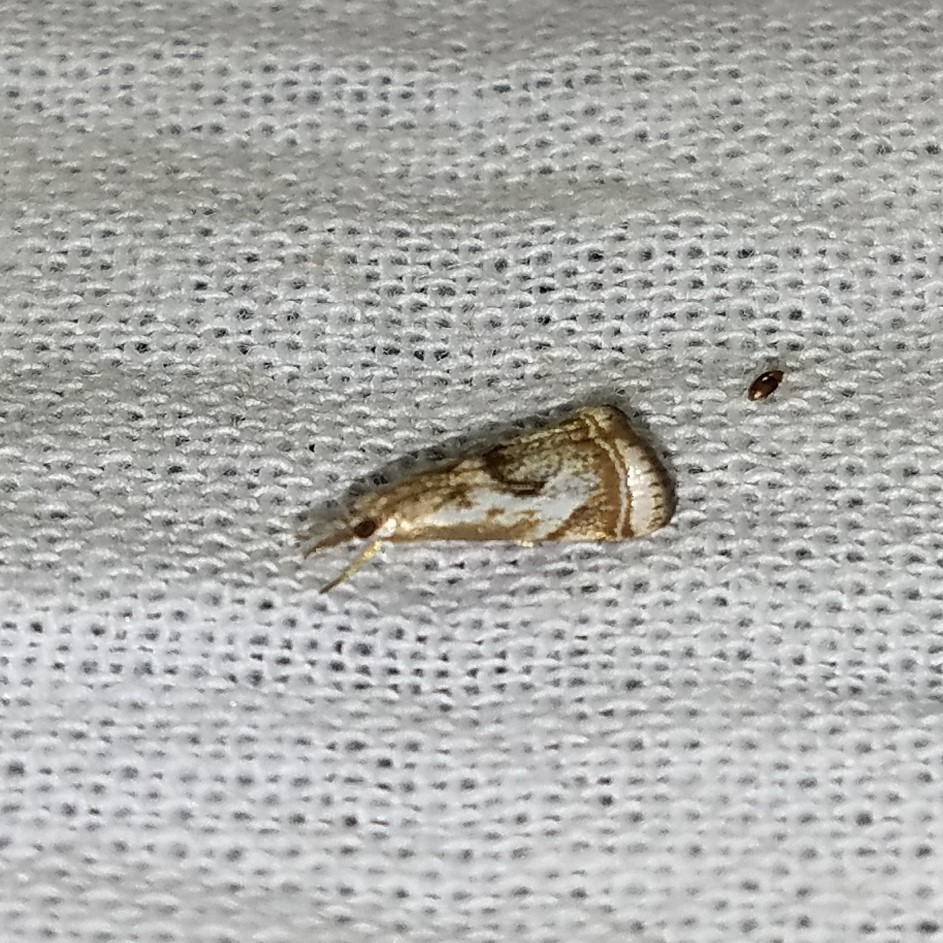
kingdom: Animalia
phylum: Arthropoda
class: Insecta
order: Lepidoptera
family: Crambidae
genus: Microcrambus
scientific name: Microcrambus elegans
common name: Elegant grass-veneer
